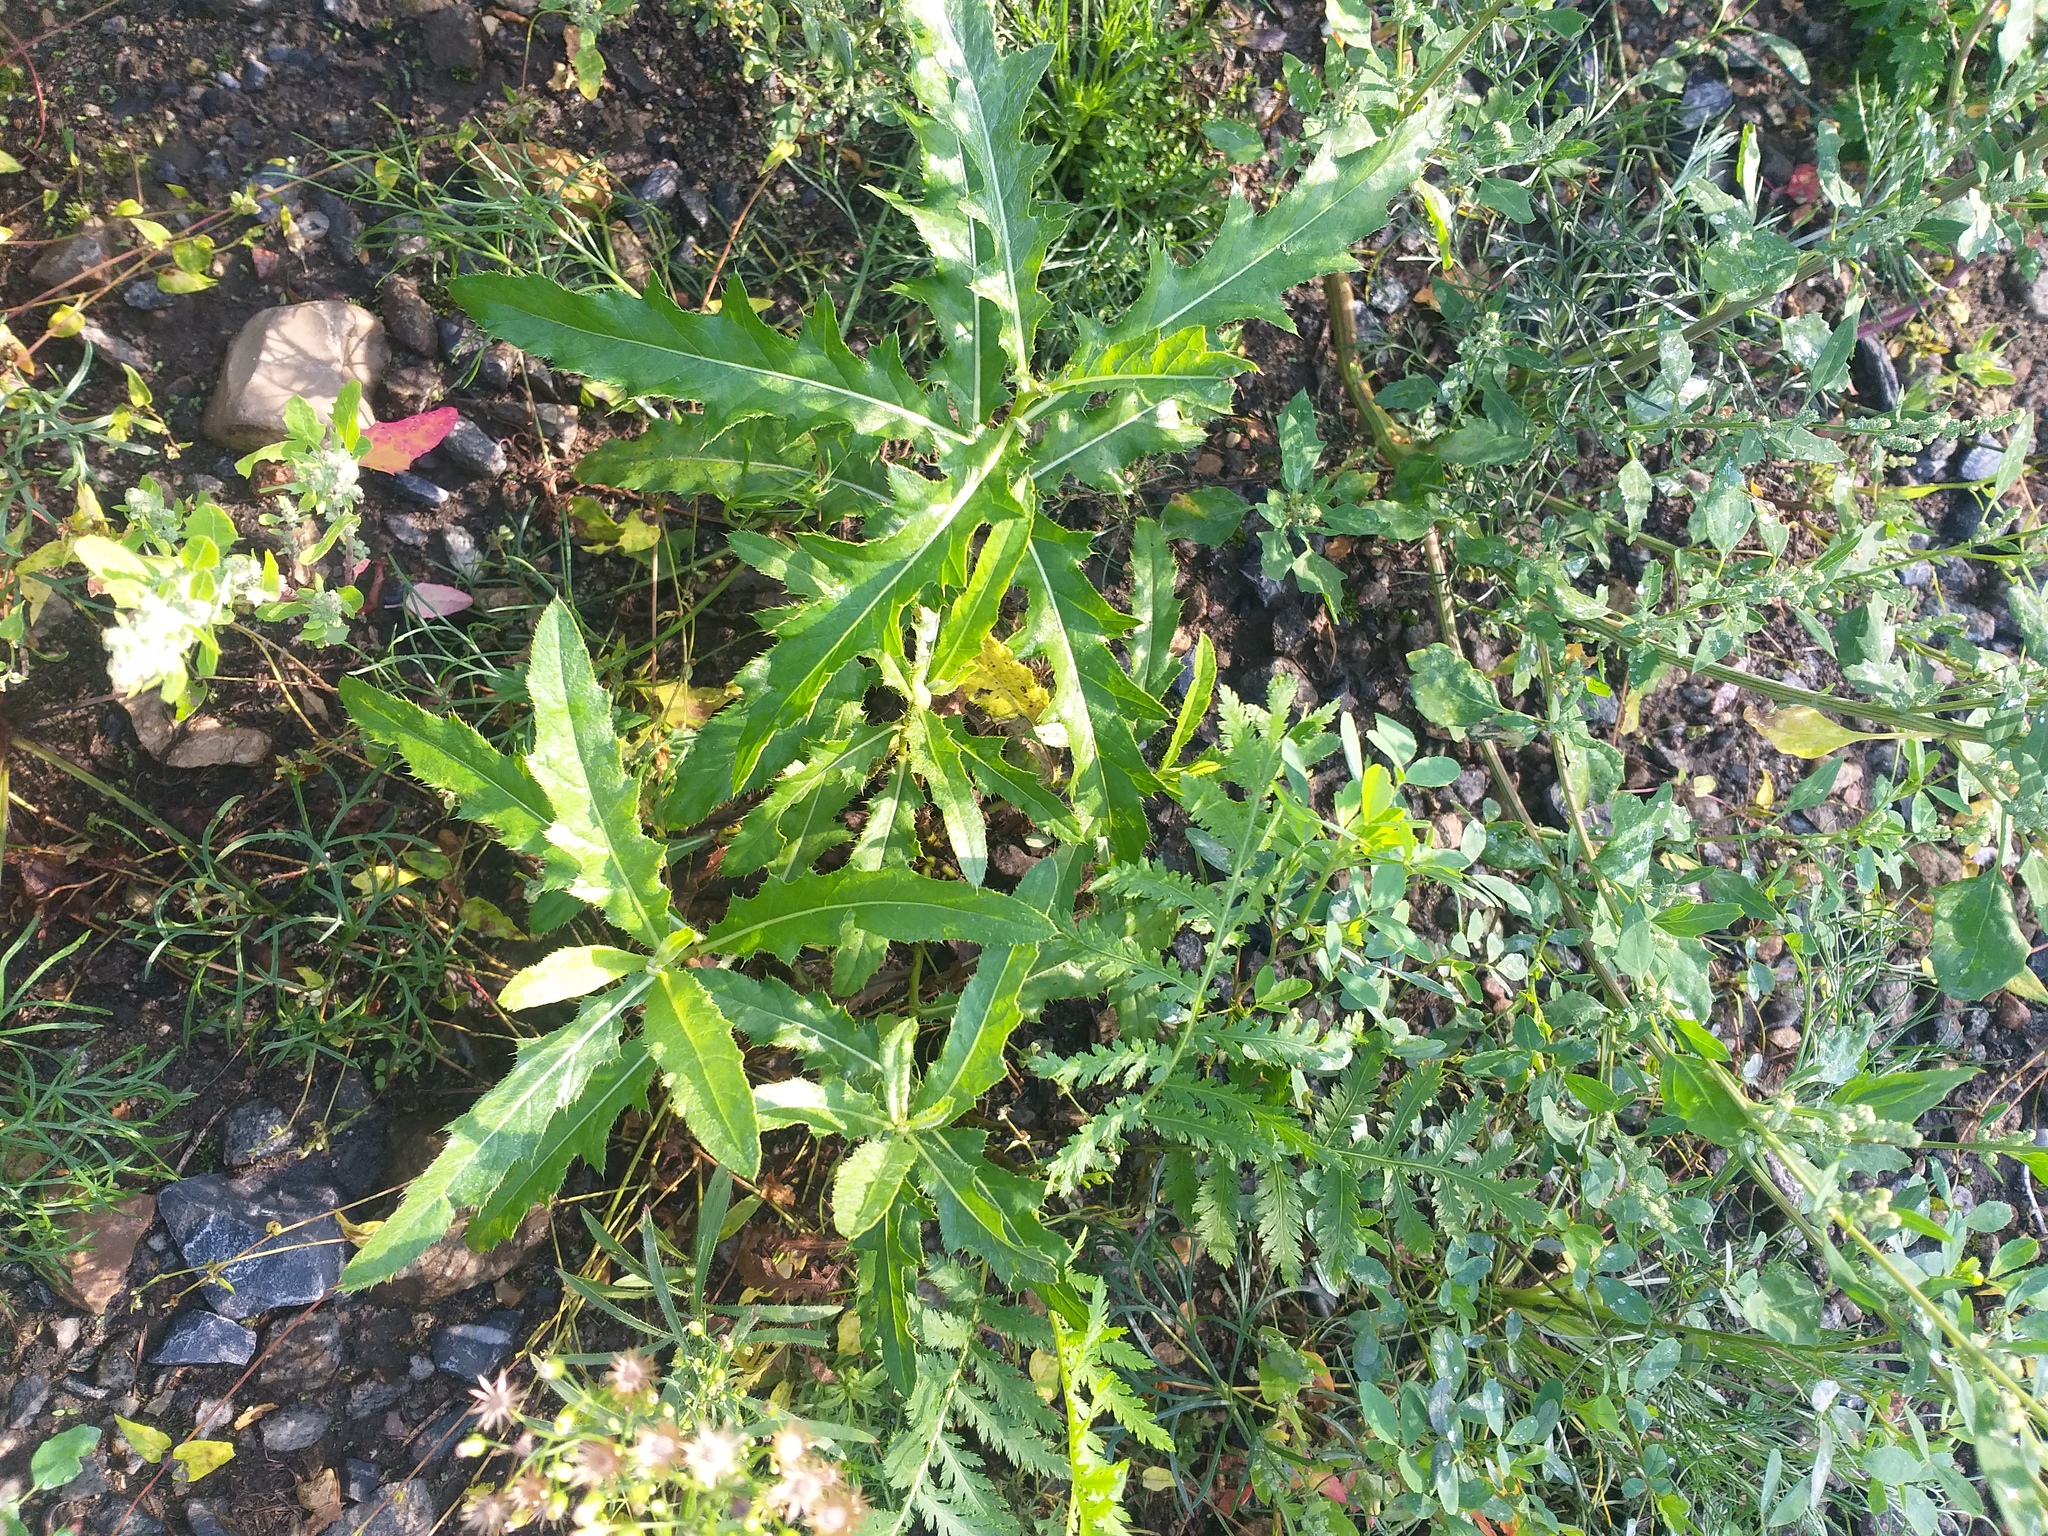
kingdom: Plantae
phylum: Tracheophyta
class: Magnoliopsida
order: Asterales
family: Asteraceae
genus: Cirsium
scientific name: Cirsium arvense
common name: Creeping thistle
